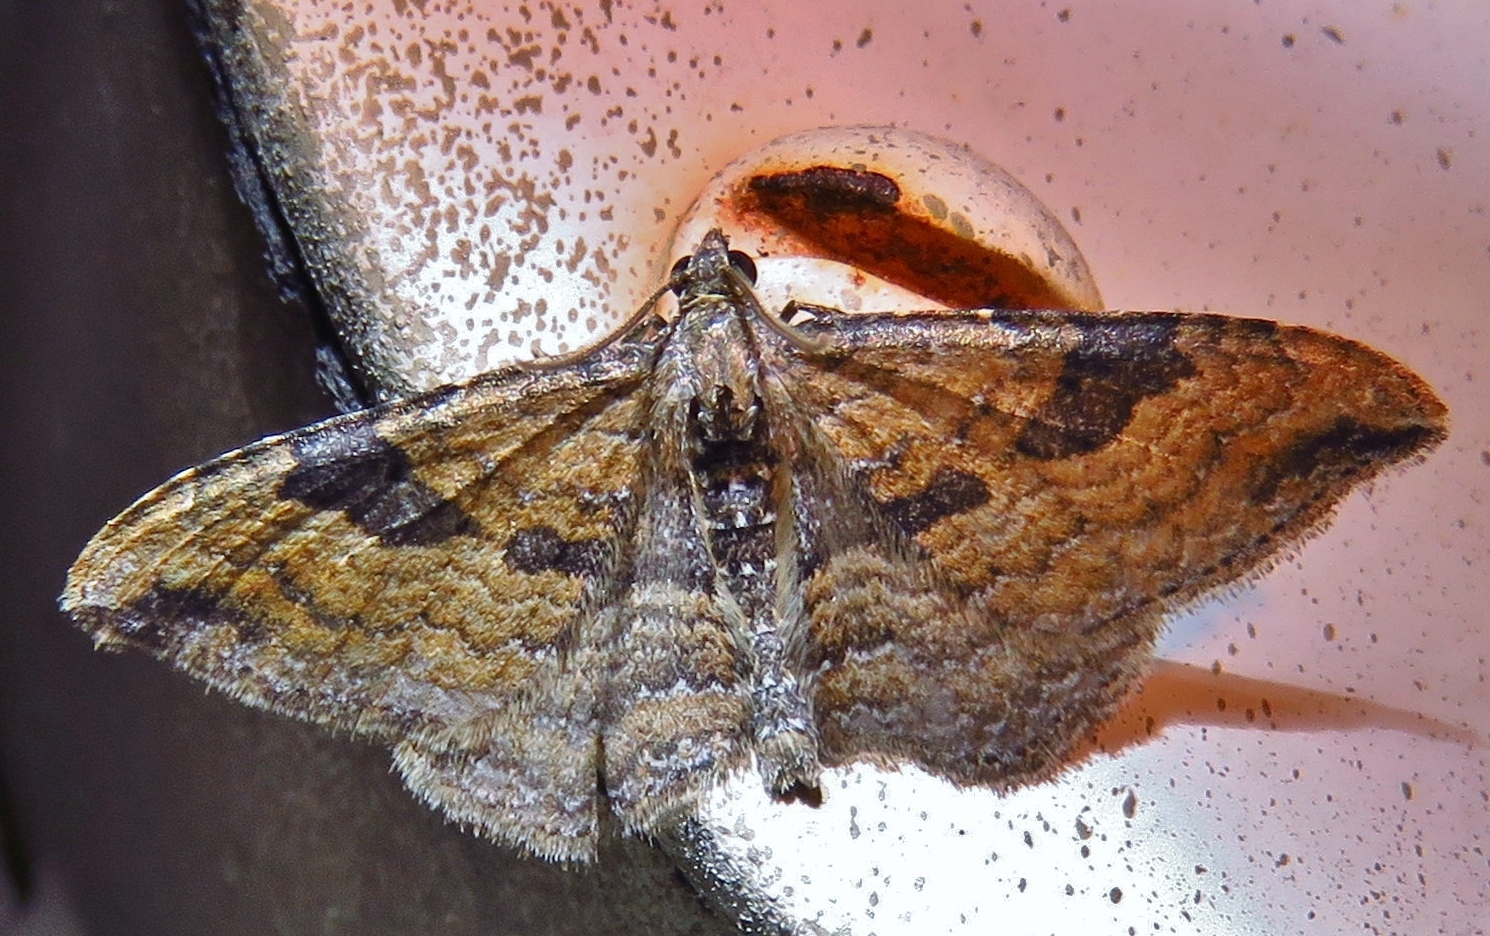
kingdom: Animalia
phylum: Arthropoda
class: Insecta
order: Lepidoptera
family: Geometridae
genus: Orthonama
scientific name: Orthonama obstipata
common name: The gem
